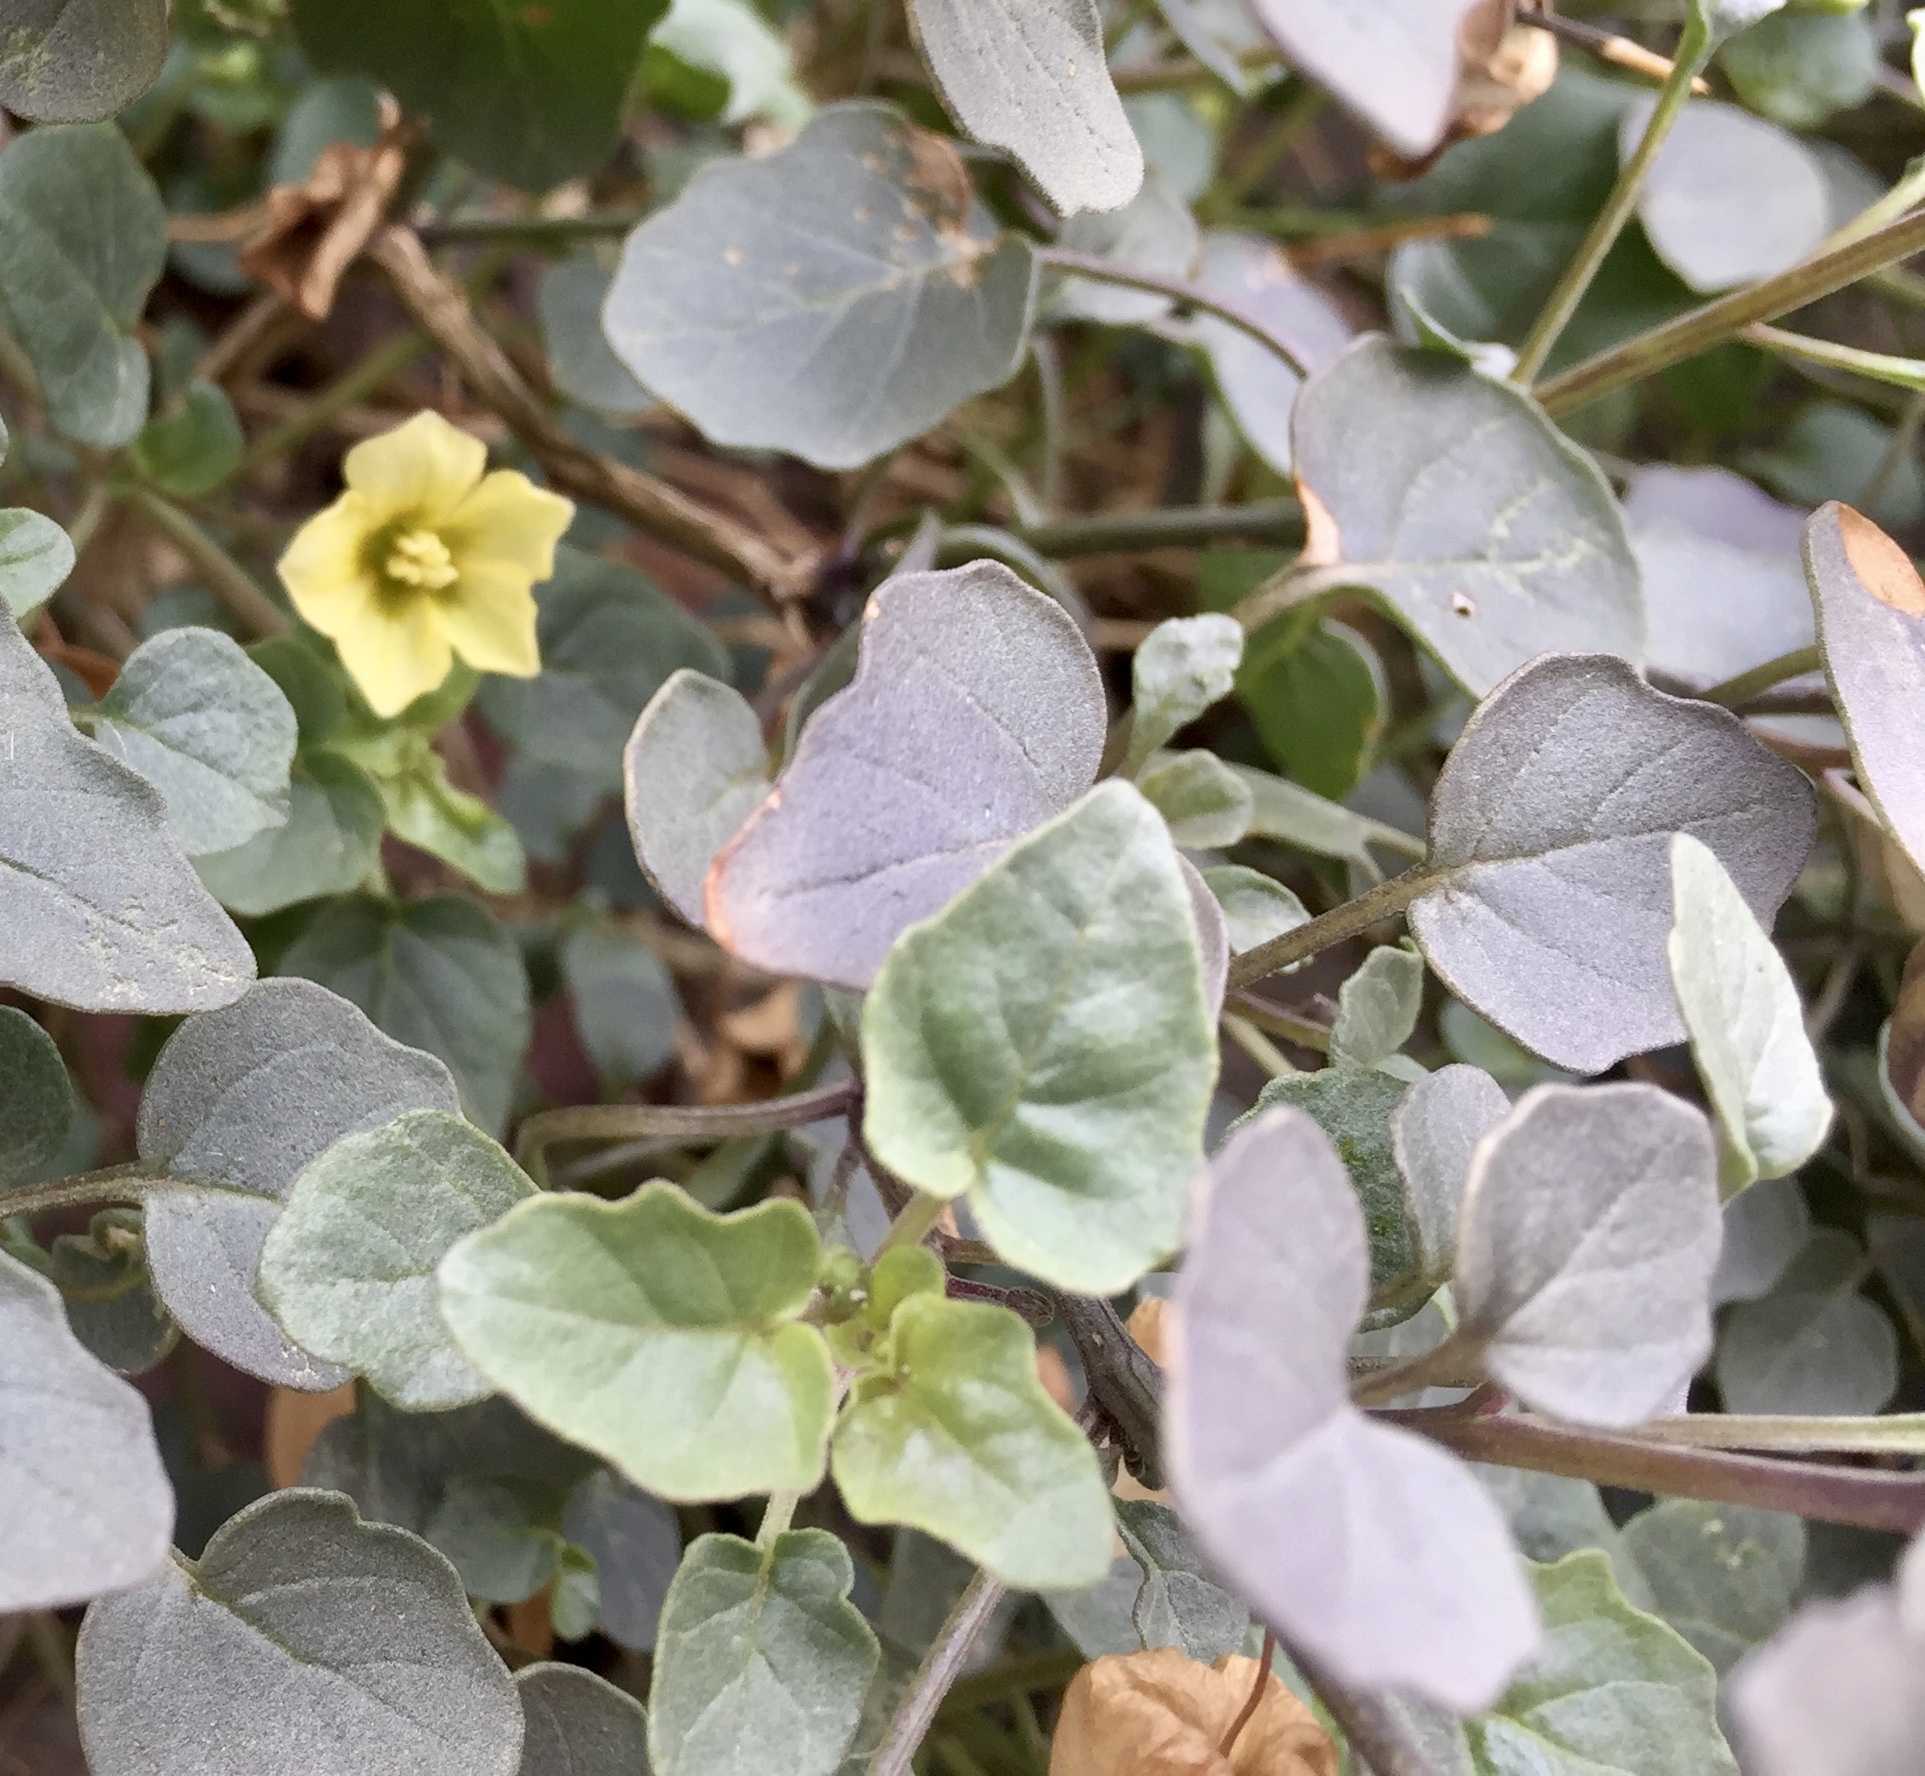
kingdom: Plantae
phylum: Tracheophyta
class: Magnoliopsida
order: Solanales
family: Solanaceae
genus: Physalis
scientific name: Physalis crassifolia
